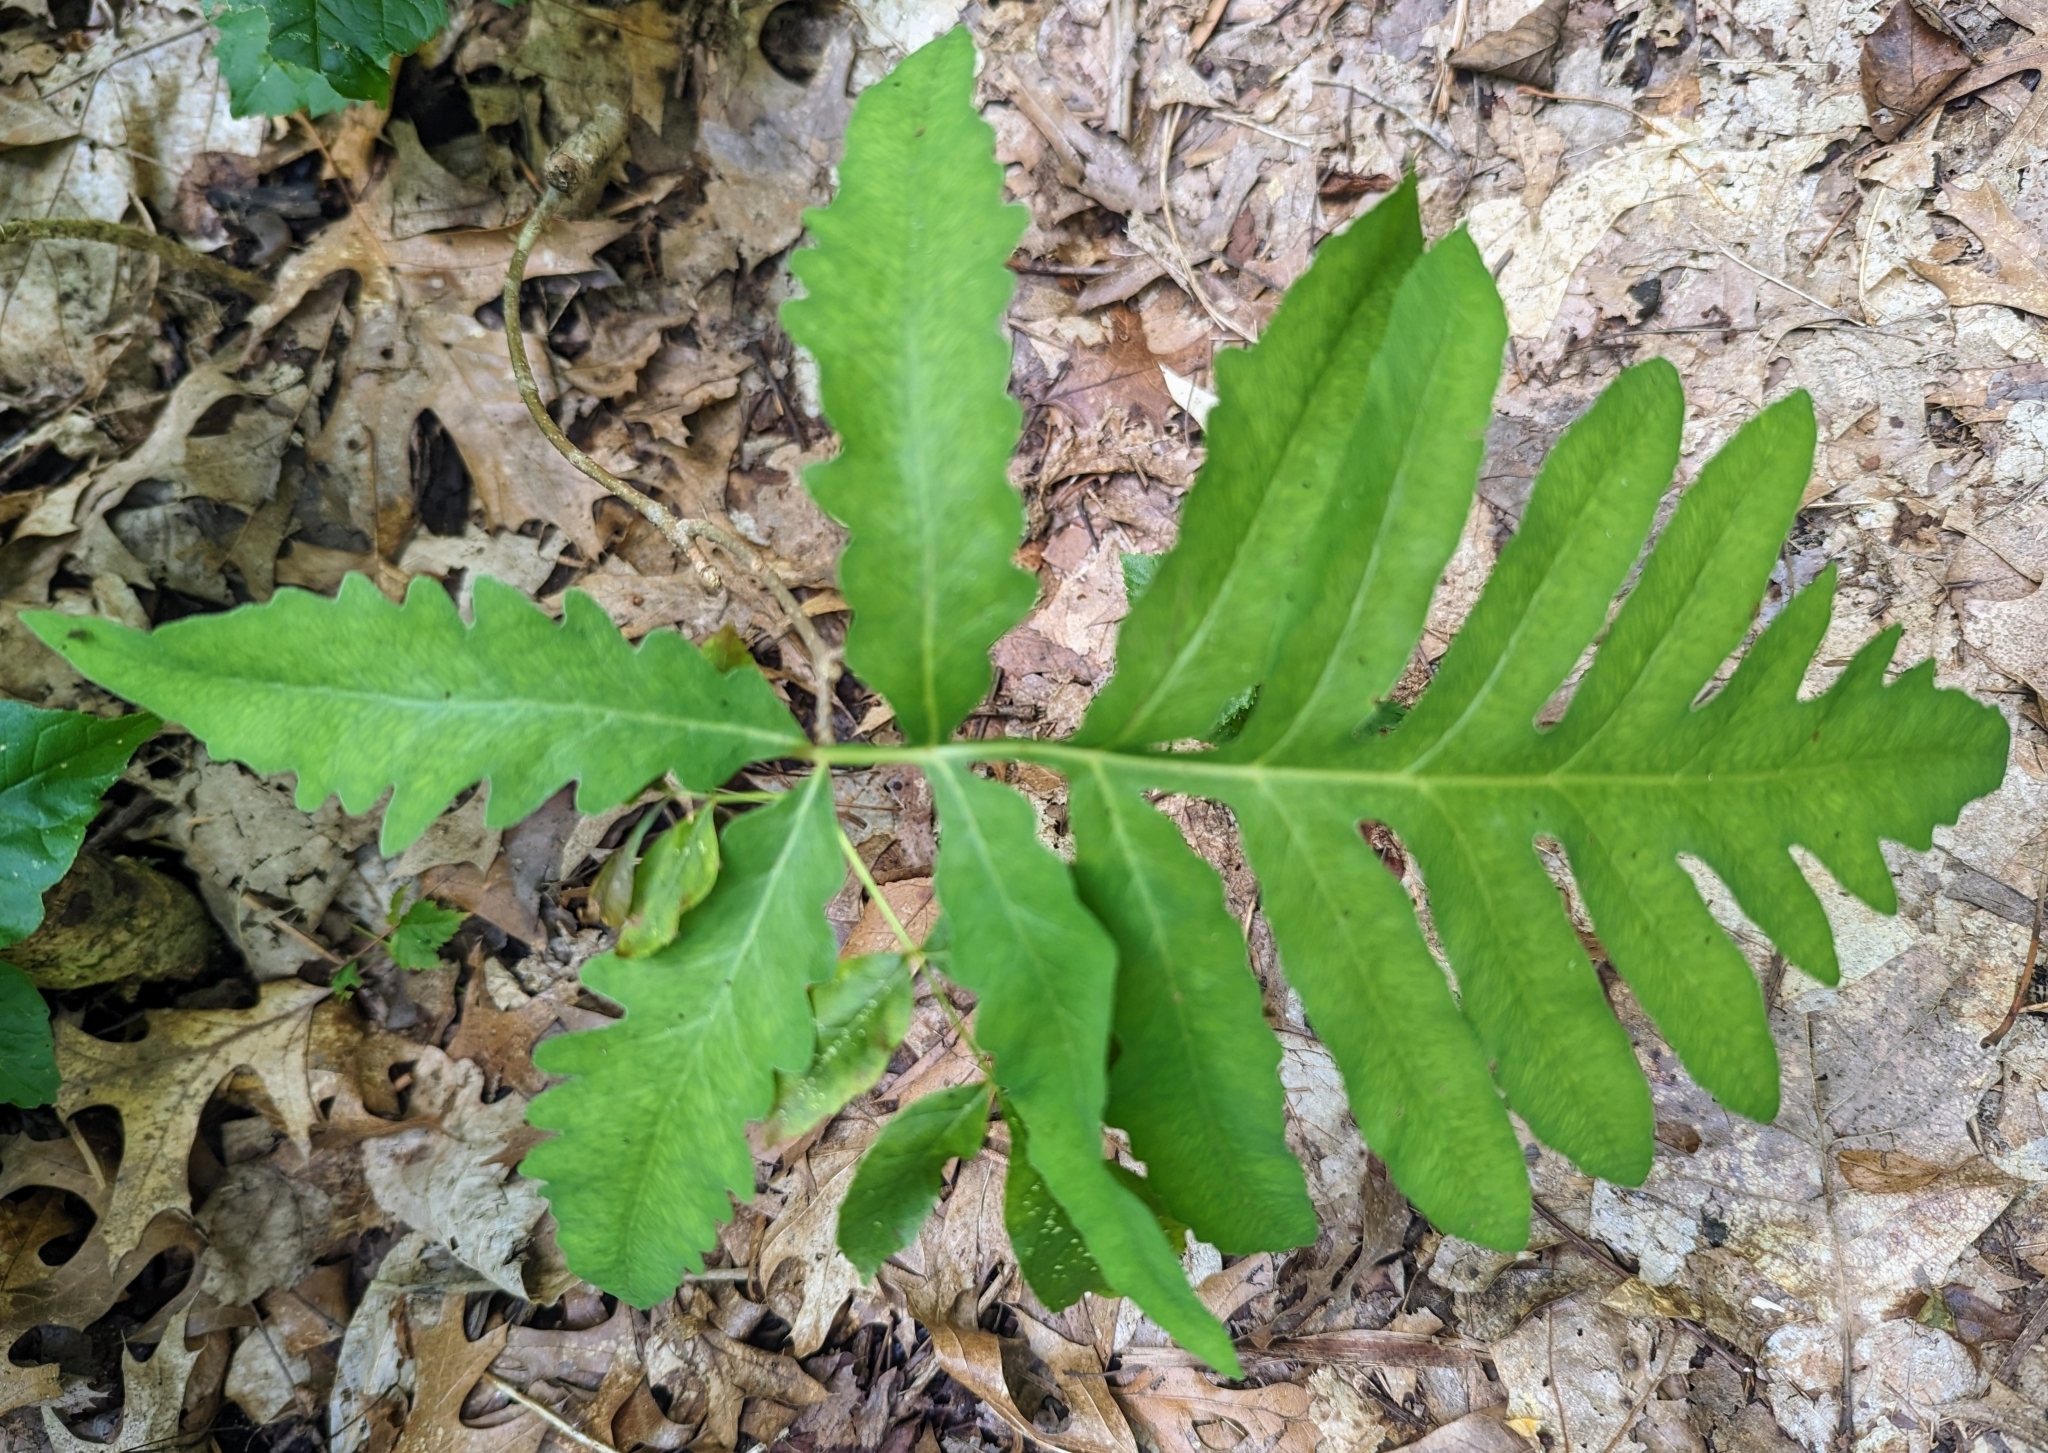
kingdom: Plantae
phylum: Tracheophyta
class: Polypodiopsida
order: Polypodiales
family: Onocleaceae
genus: Onoclea
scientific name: Onoclea sensibilis
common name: Sensitive fern
